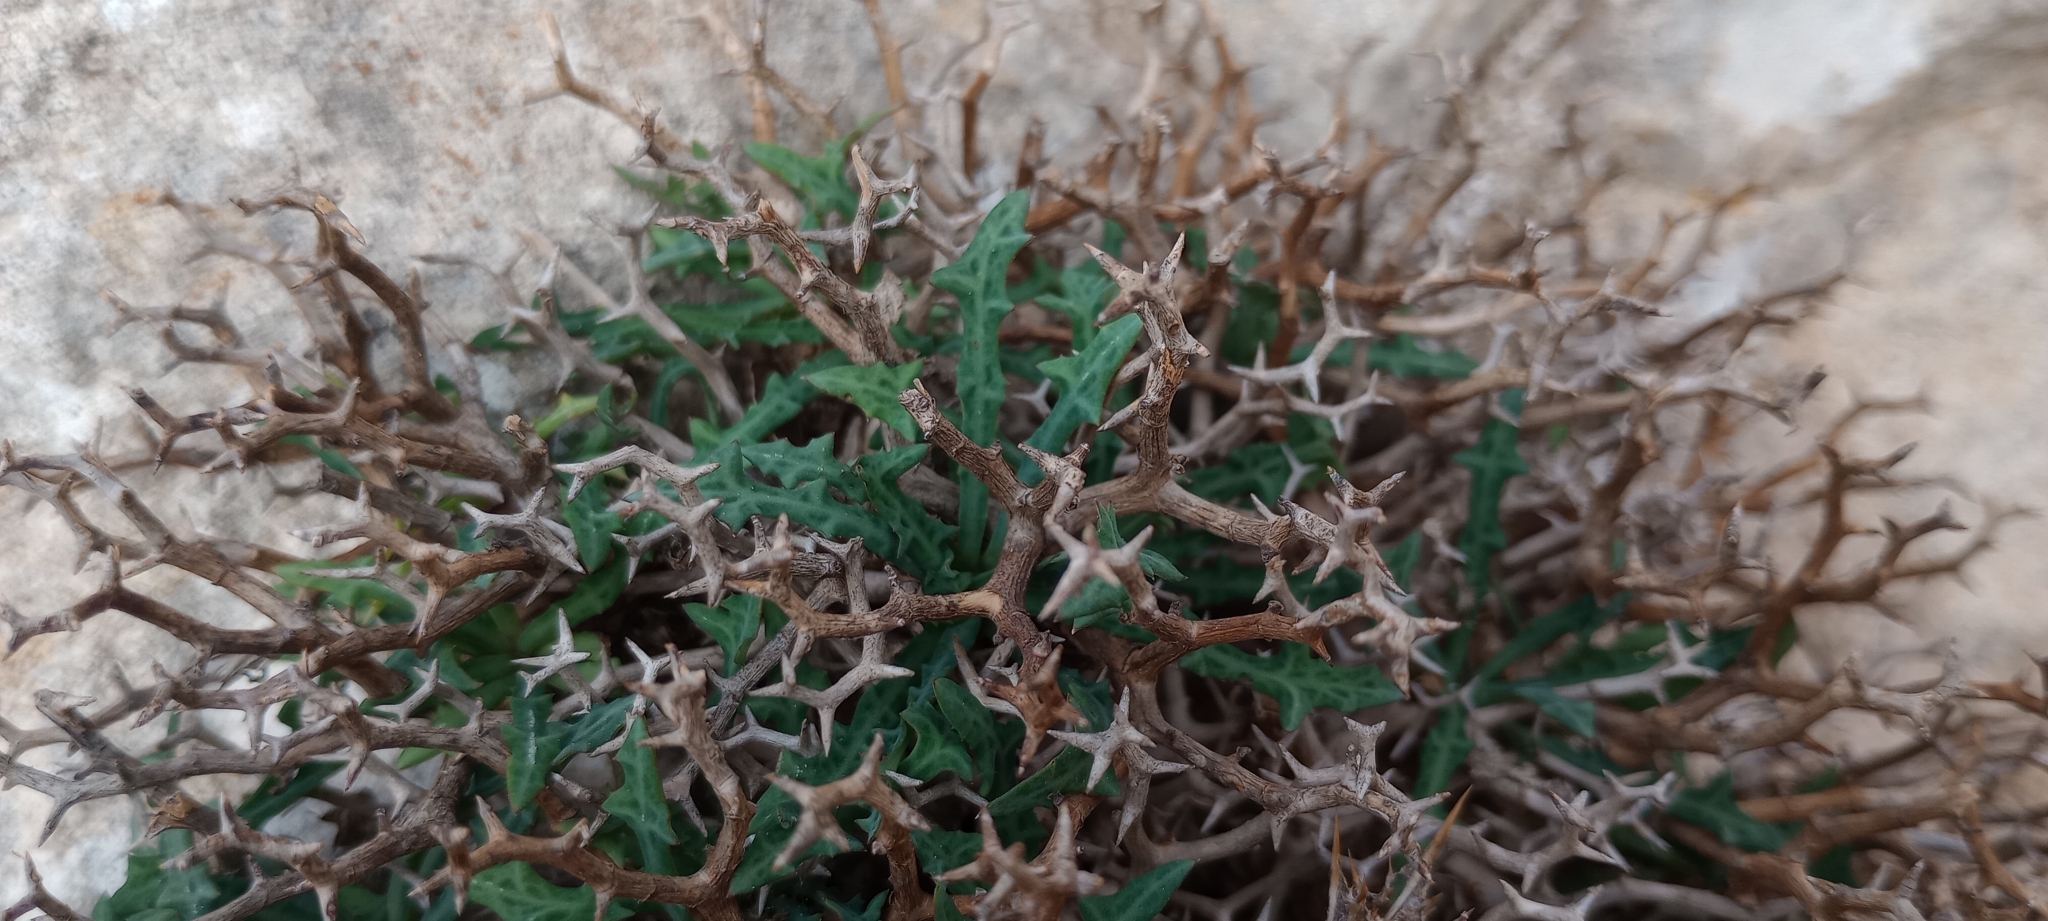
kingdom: Plantae
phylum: Tracheophyta
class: Magnoliopsida
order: Asterales
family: Asteraceae
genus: Launaea
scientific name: Launaea cervicornis
